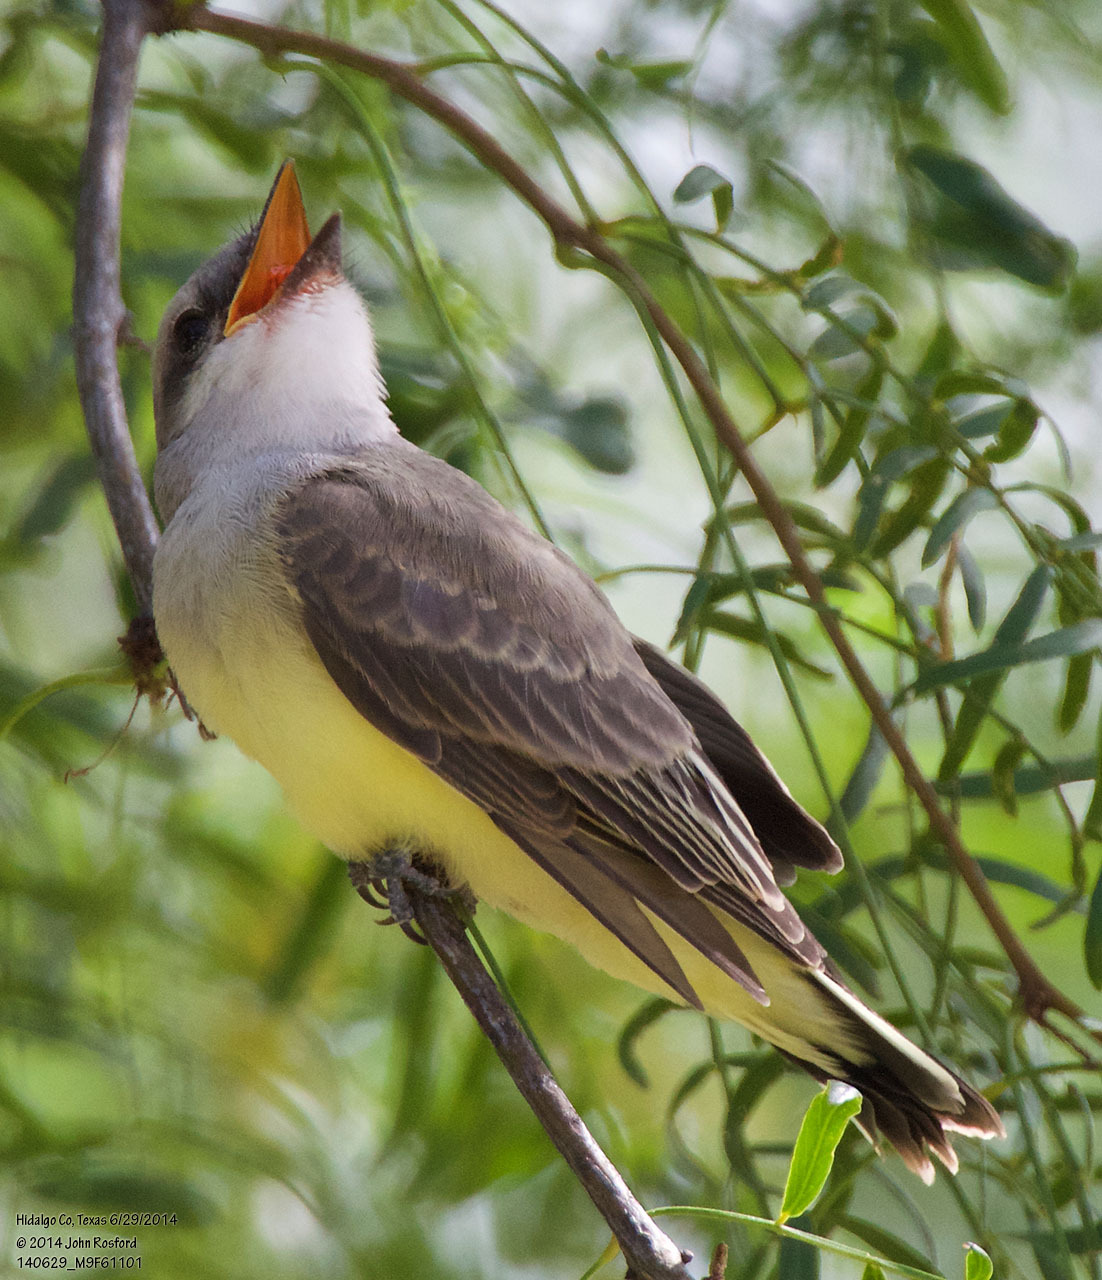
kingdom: Animalia
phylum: Chordata
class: Aves
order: Passeriformes
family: Tyrannidae
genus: Tyrannus
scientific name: Tyrannus verticalis
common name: Western kingbird
